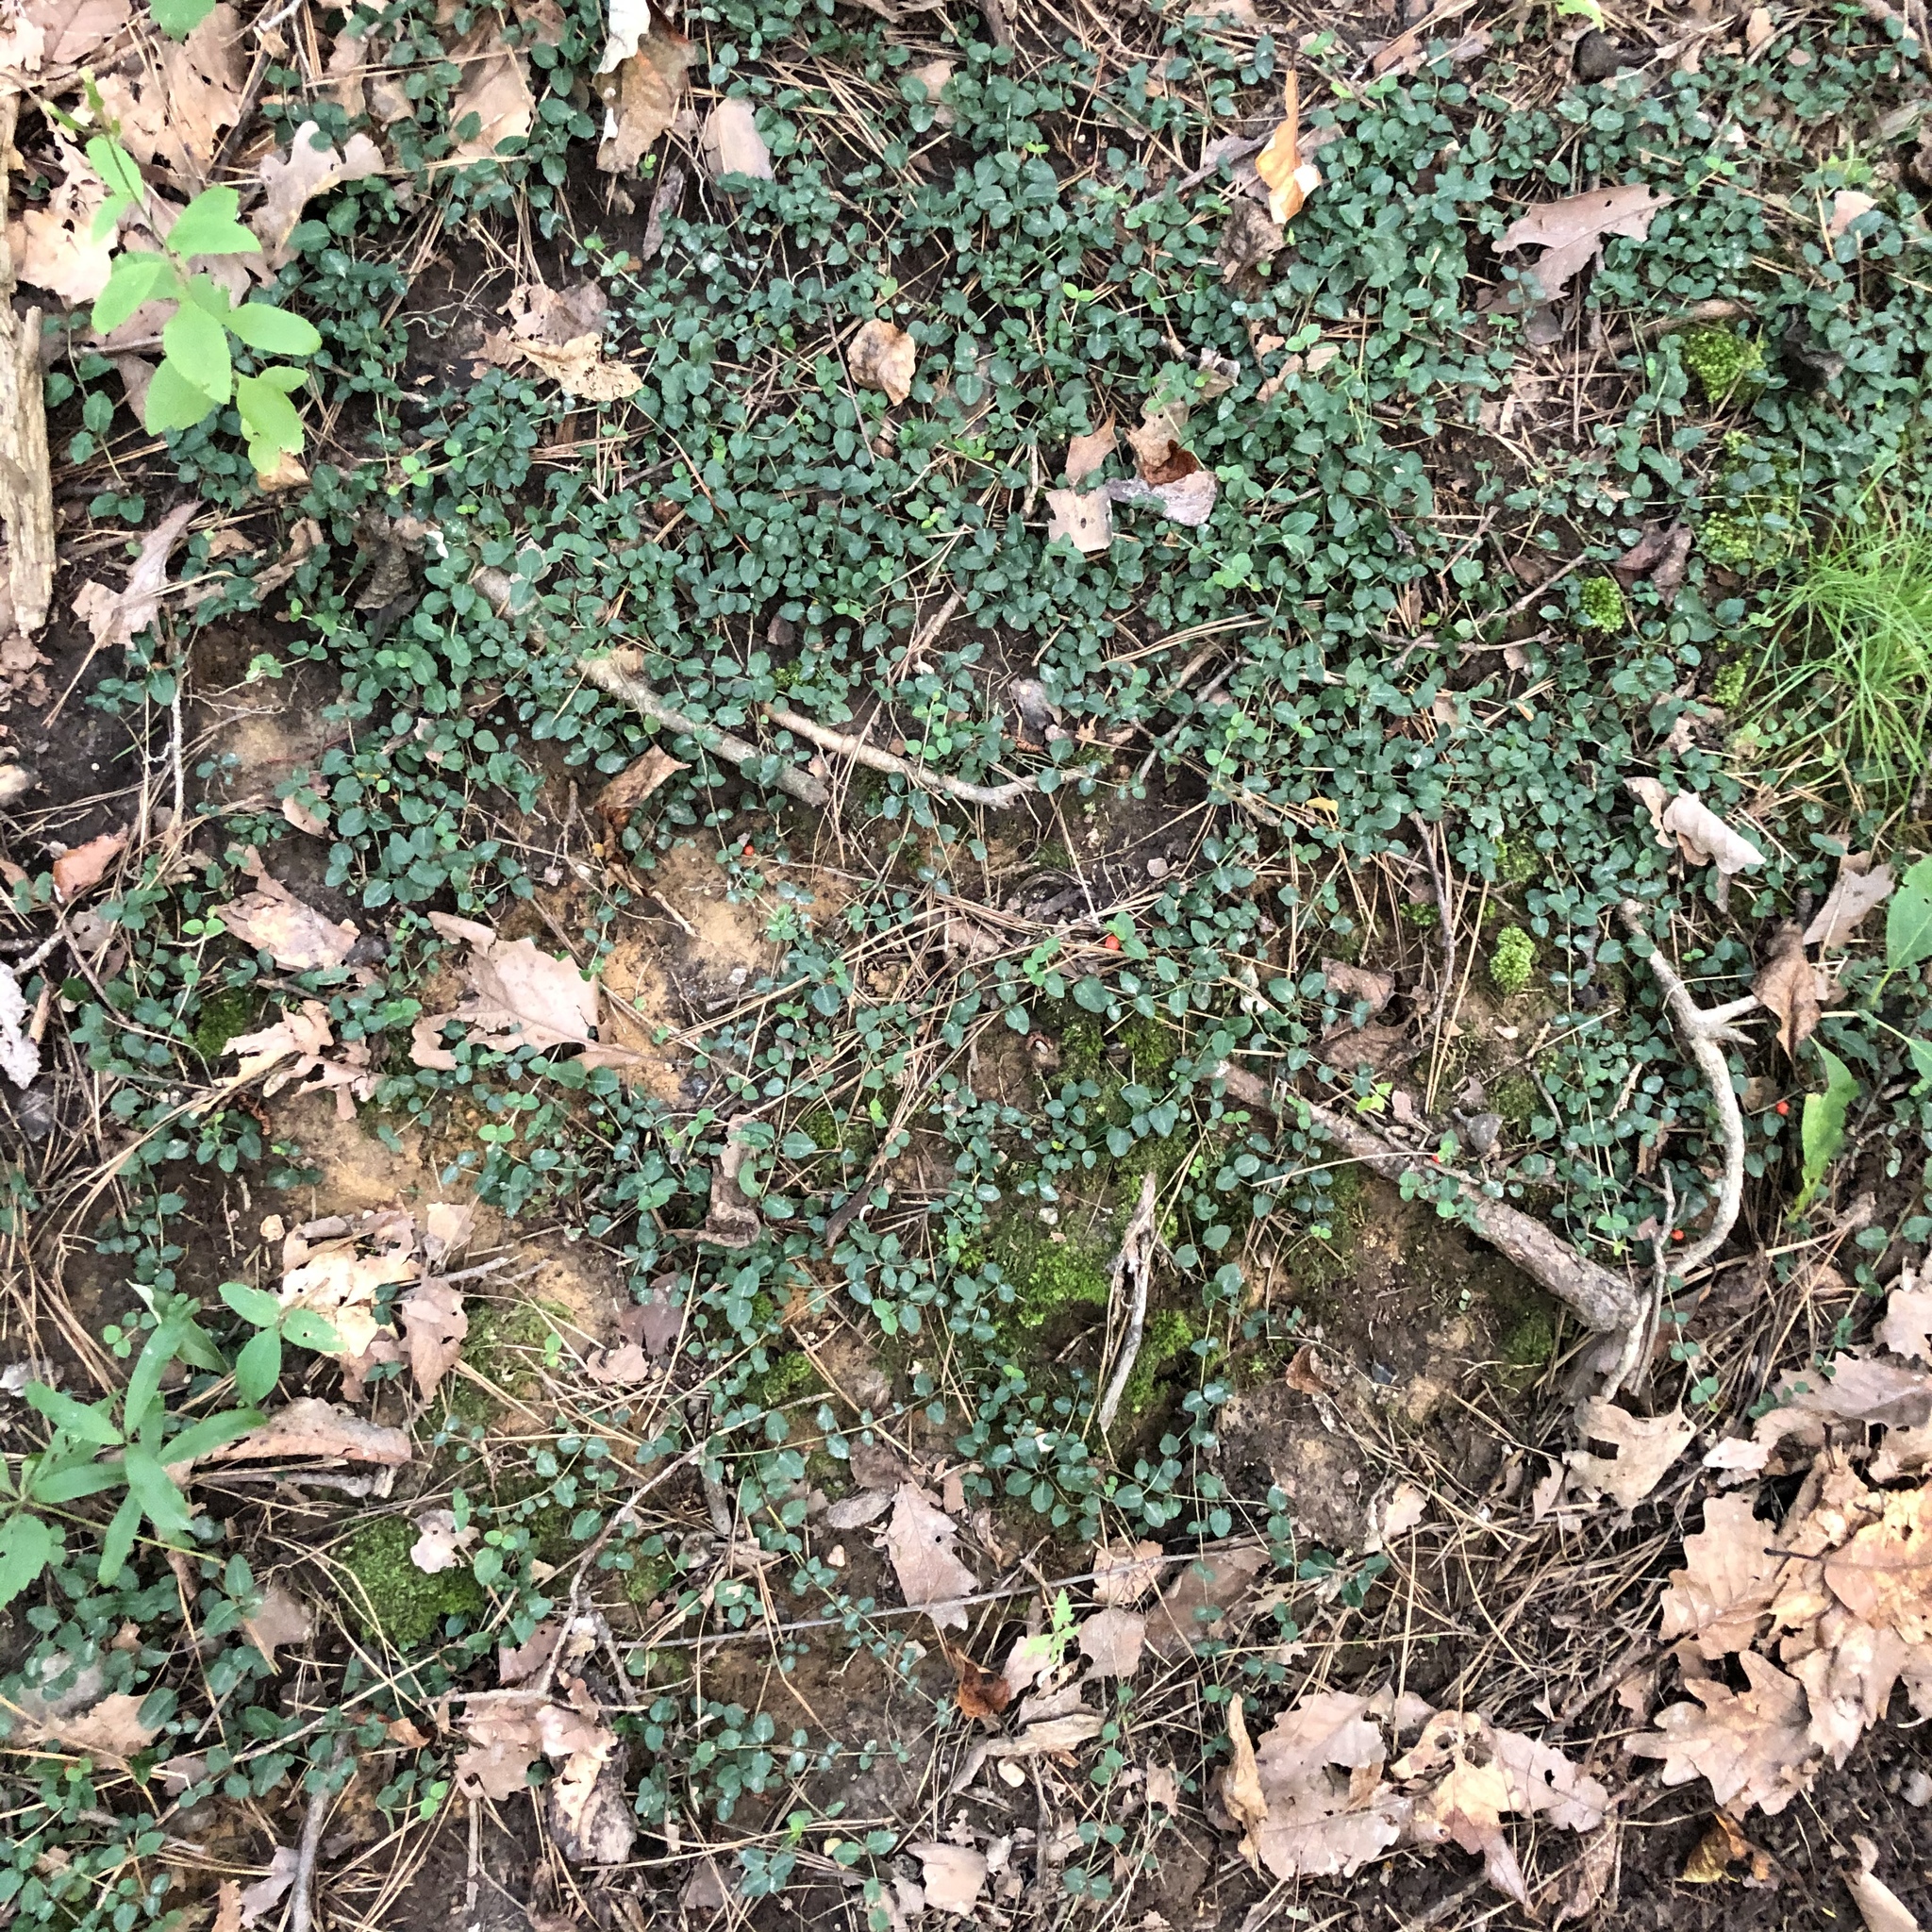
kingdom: Plantae
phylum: Tracheophyta
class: Magnoliopsida
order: Gentianales
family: Rubiaceae
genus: Mitchella
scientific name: Mitchella repens
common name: Partridge-berry
